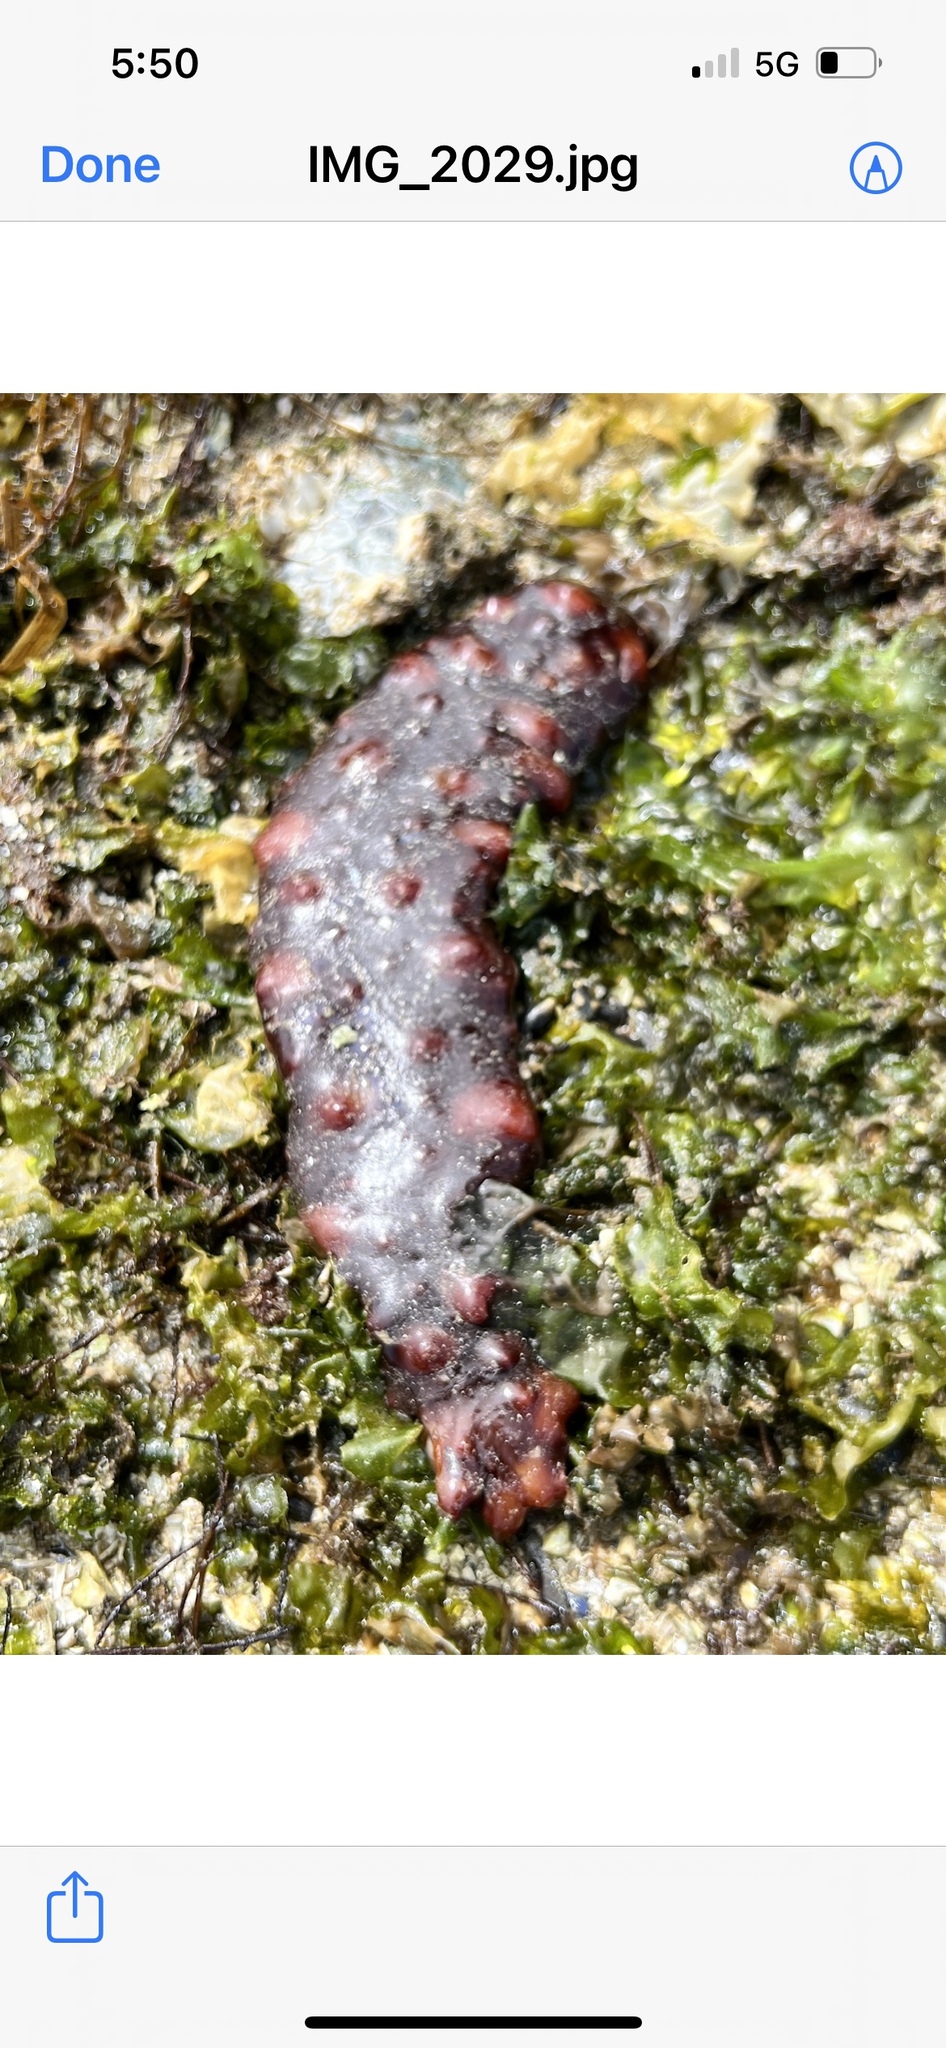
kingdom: Animalia
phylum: Echinodermata
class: Holothuroidea
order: Synallactida
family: Stichopodidae
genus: Apostichopus
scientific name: Apostichopus californicus
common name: California sea cucumber
